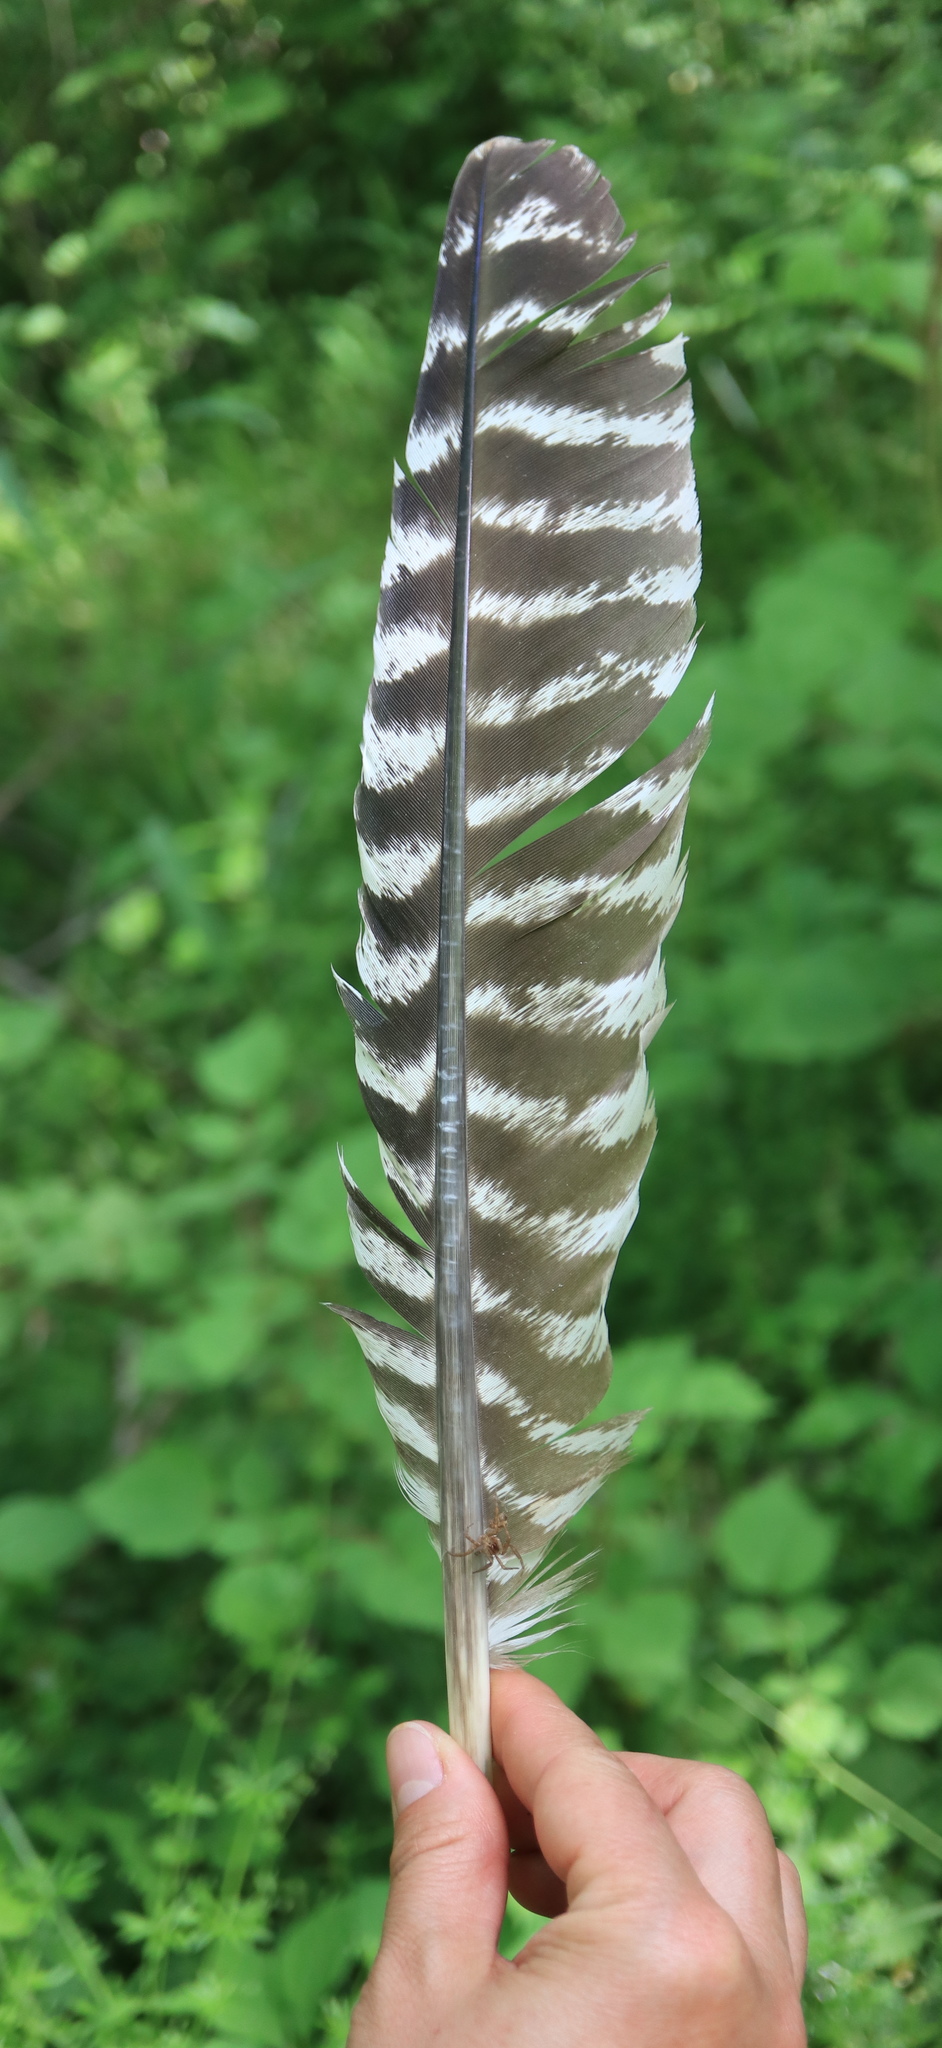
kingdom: Animalia
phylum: Chordata
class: Aves
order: Galliformes
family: Phasianidae
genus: Meleagris
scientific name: Meleagris gallopavo
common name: Wild turkey
